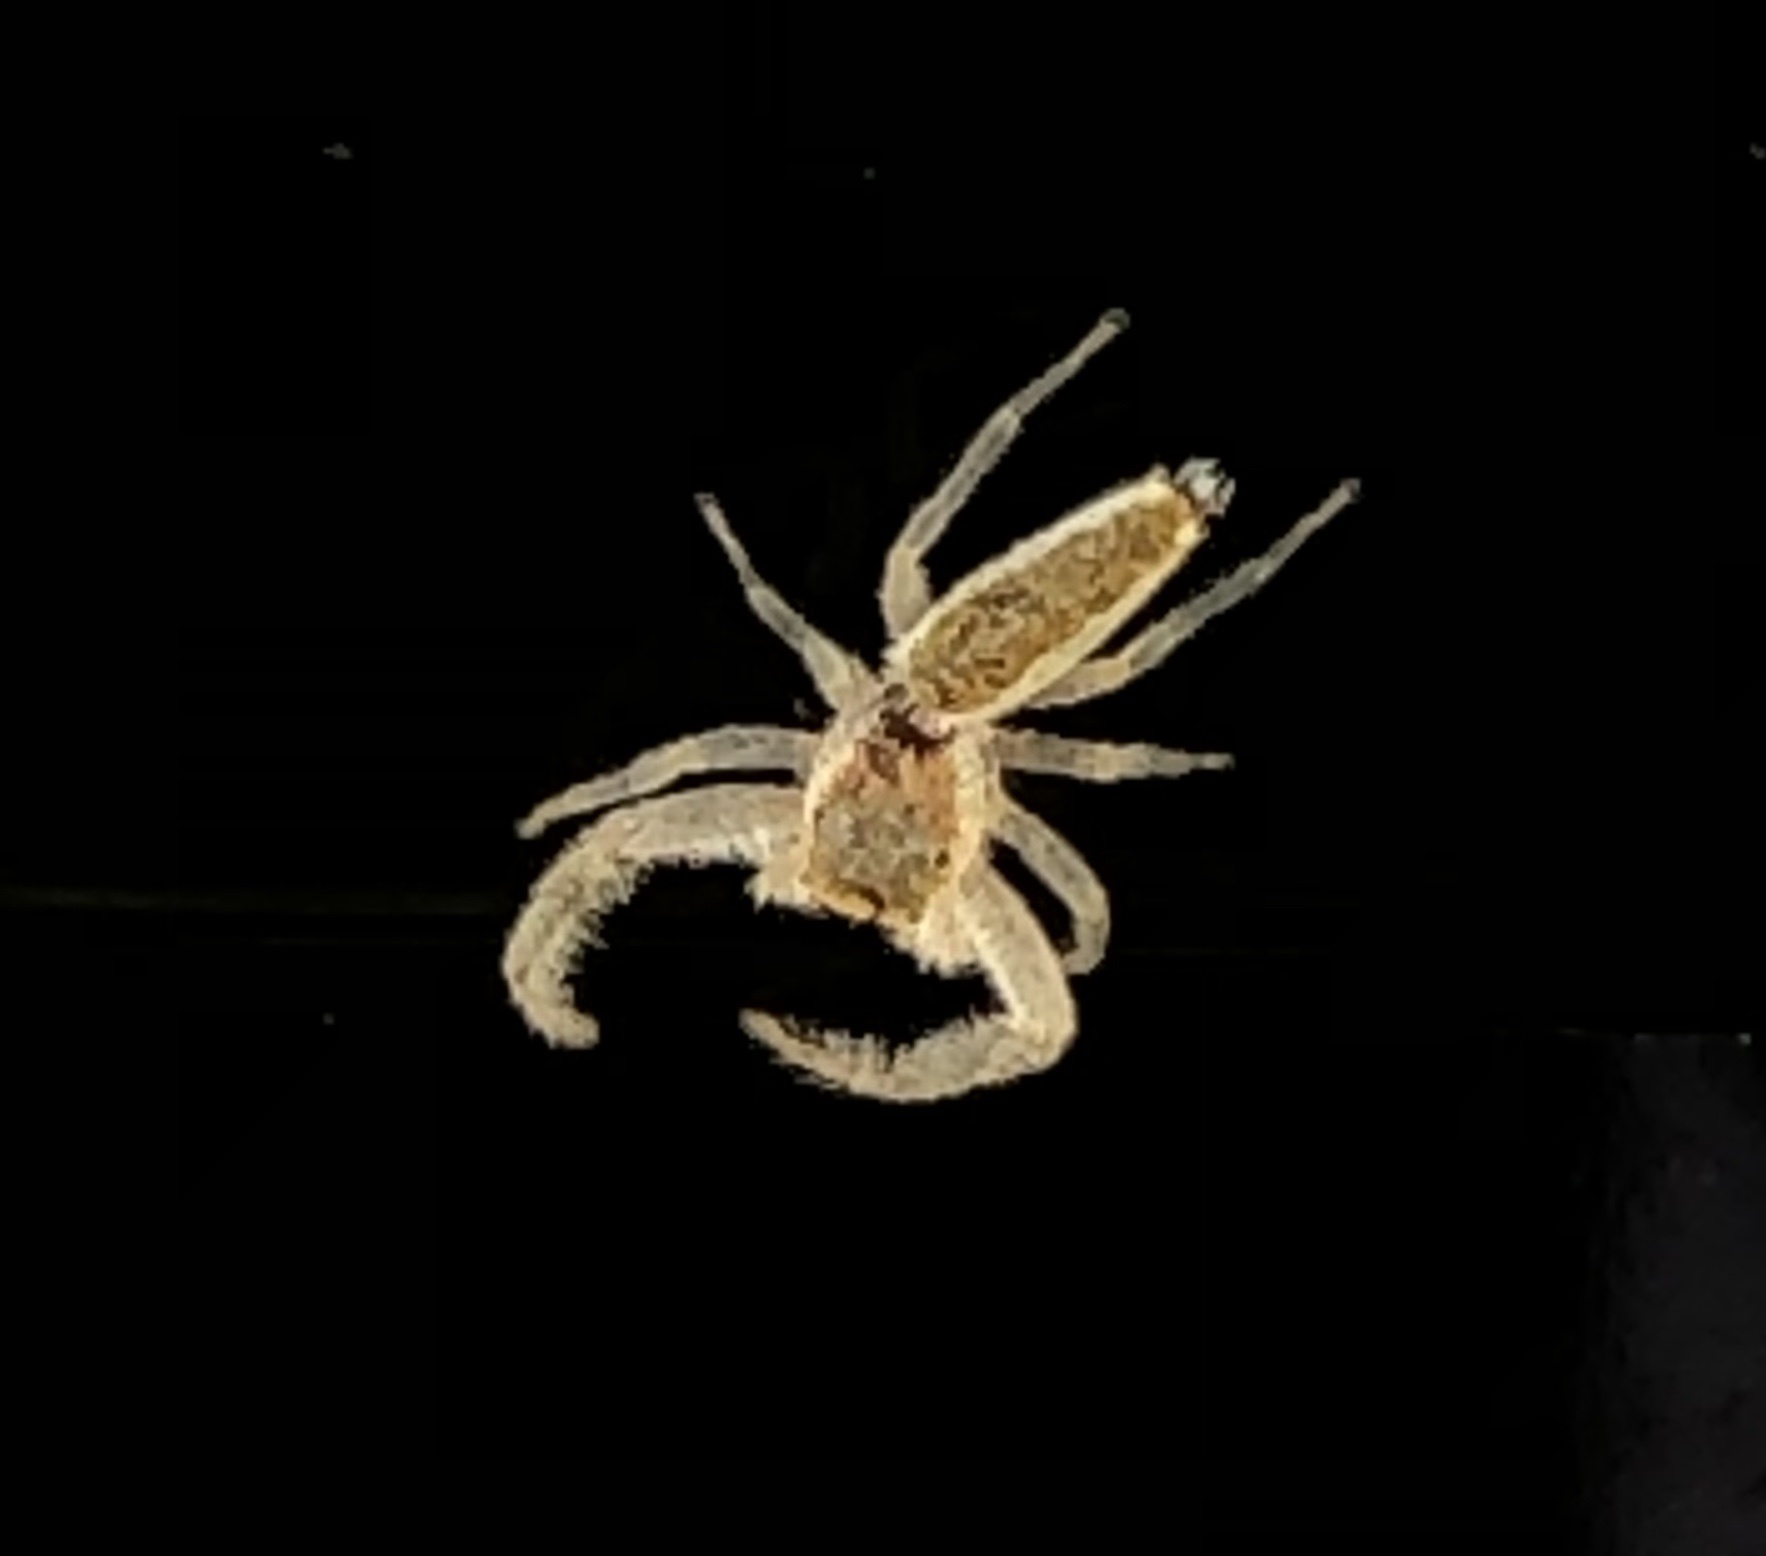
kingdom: Animalia
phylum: Arthropoda
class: Arachnida
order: Araneae
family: Salticidae
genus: Hentzia
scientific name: Hentzia mitrata
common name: White-jawed jumping spider
